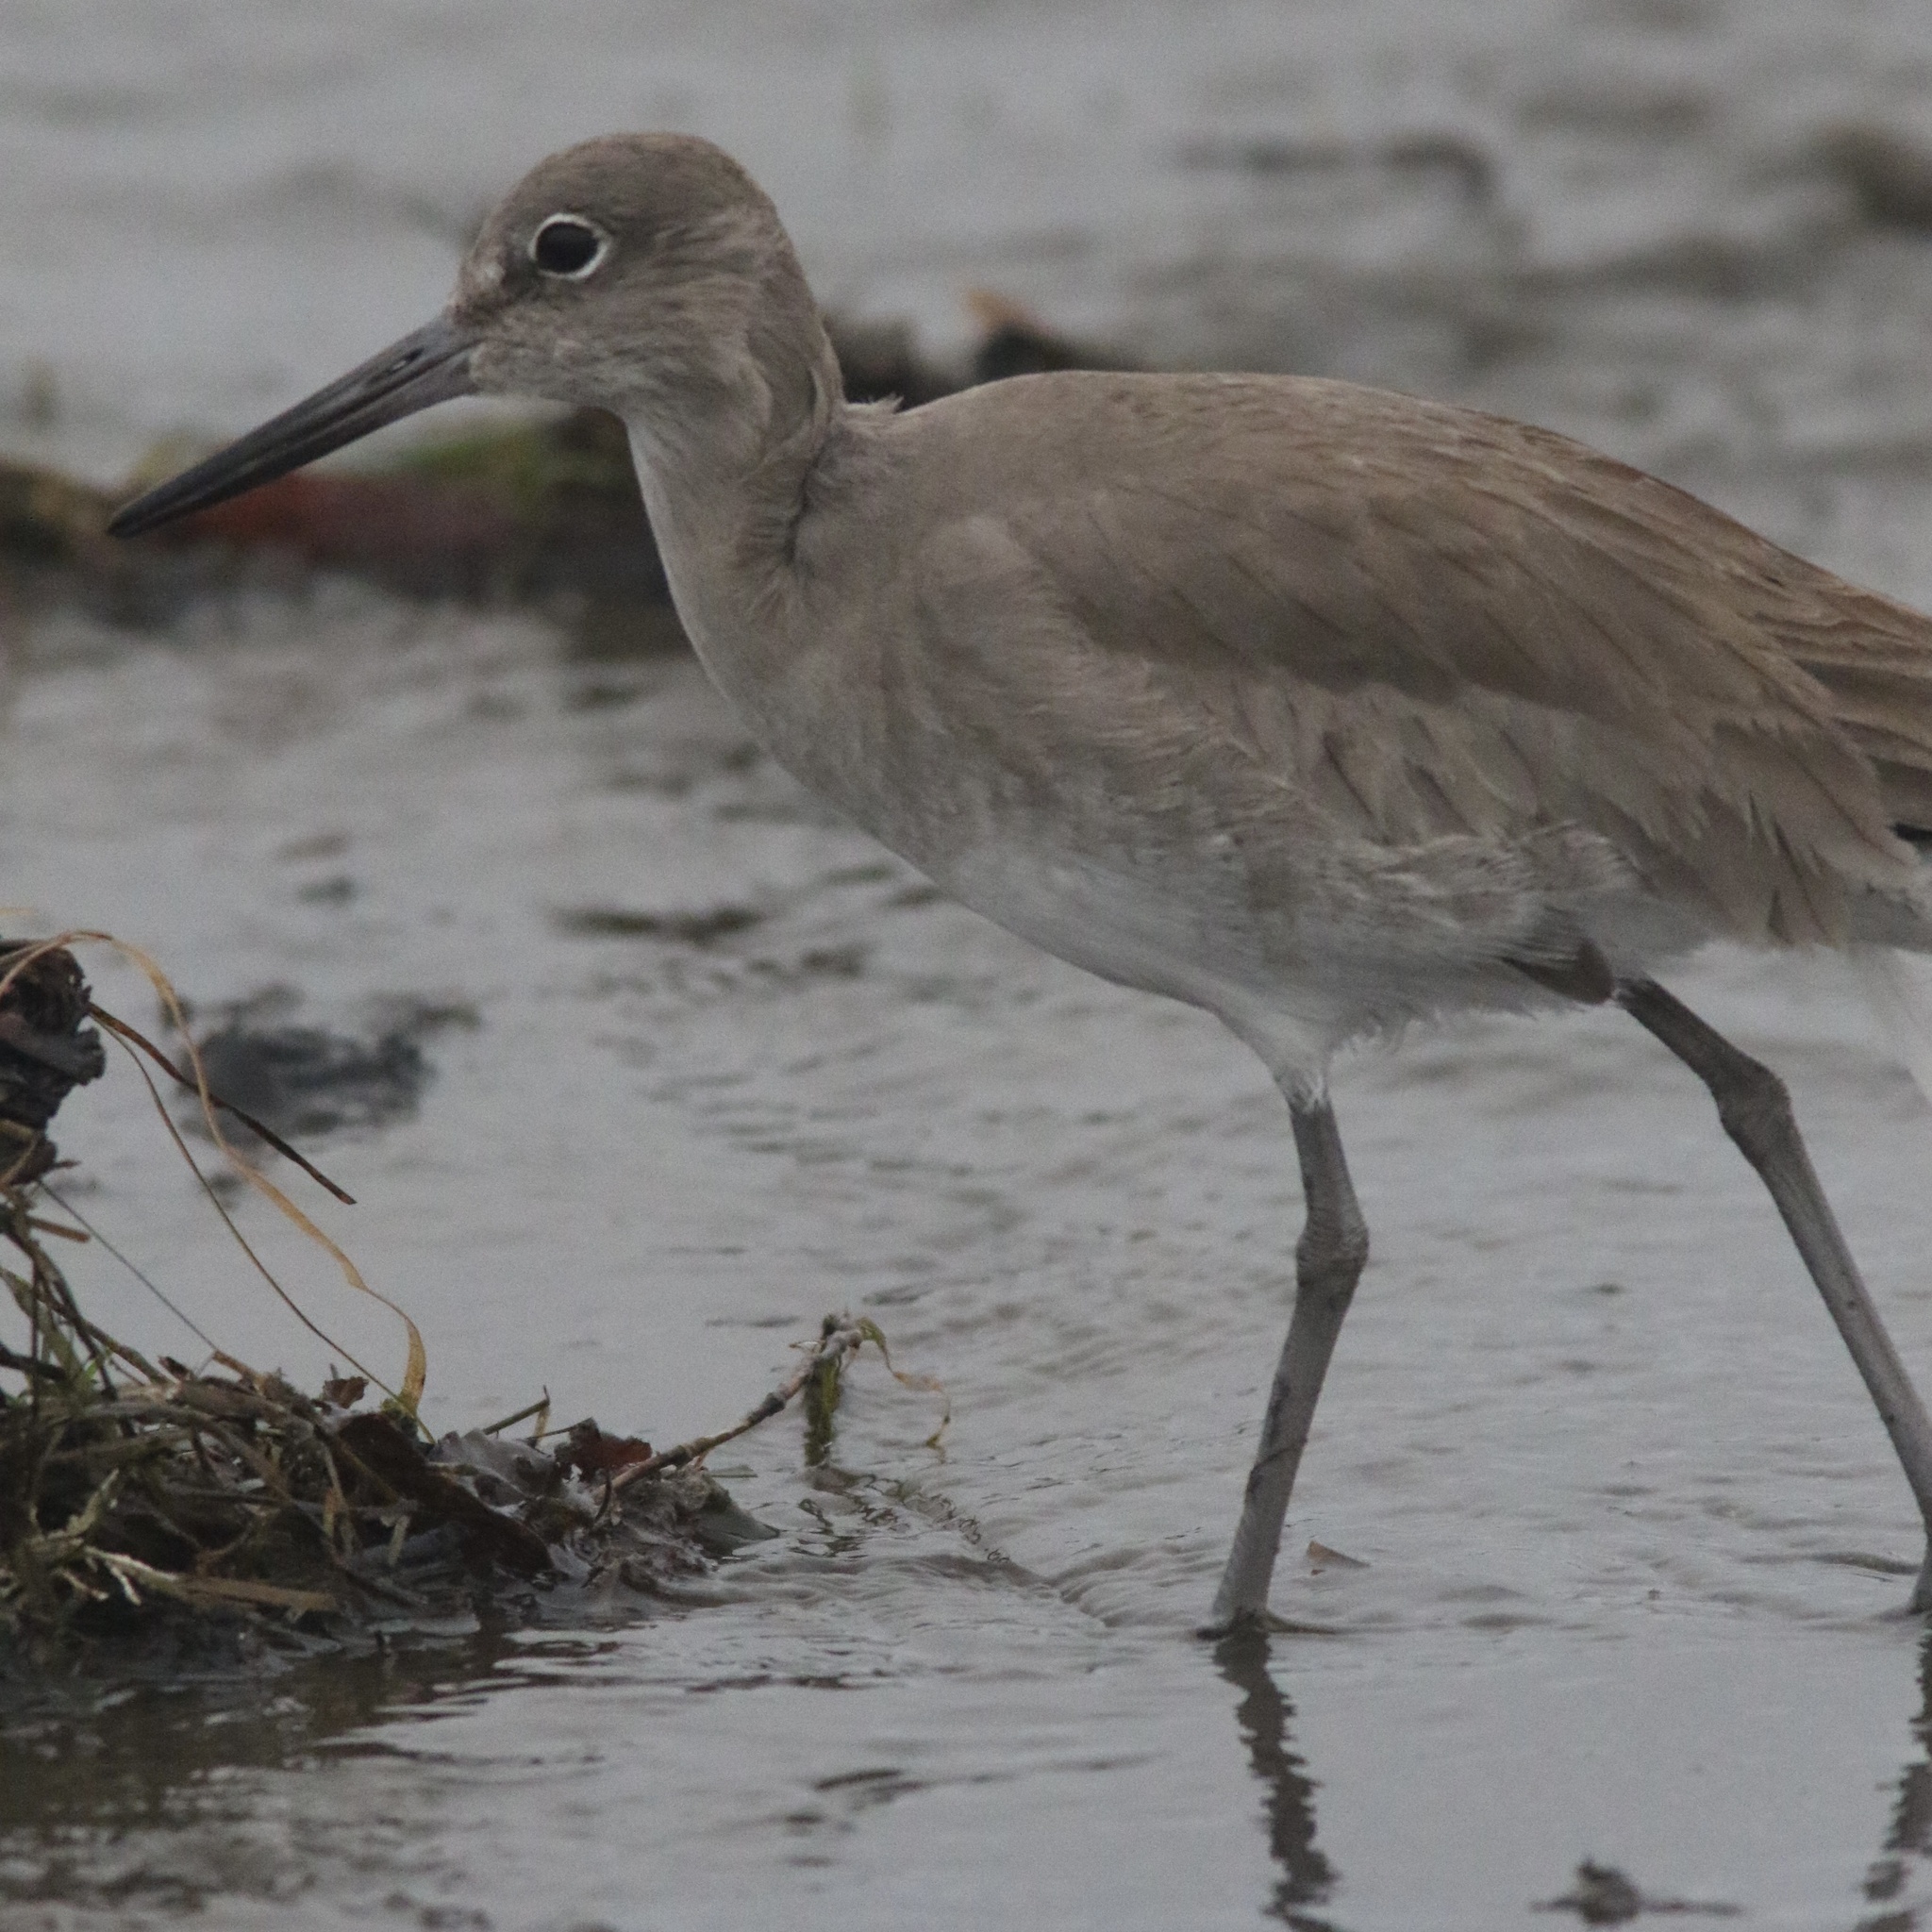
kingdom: Animalia
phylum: Chordata
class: Aves
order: Charadriiformes
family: Scolopacidae
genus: Tringa
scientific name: Tringa semipalmata
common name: Willet
